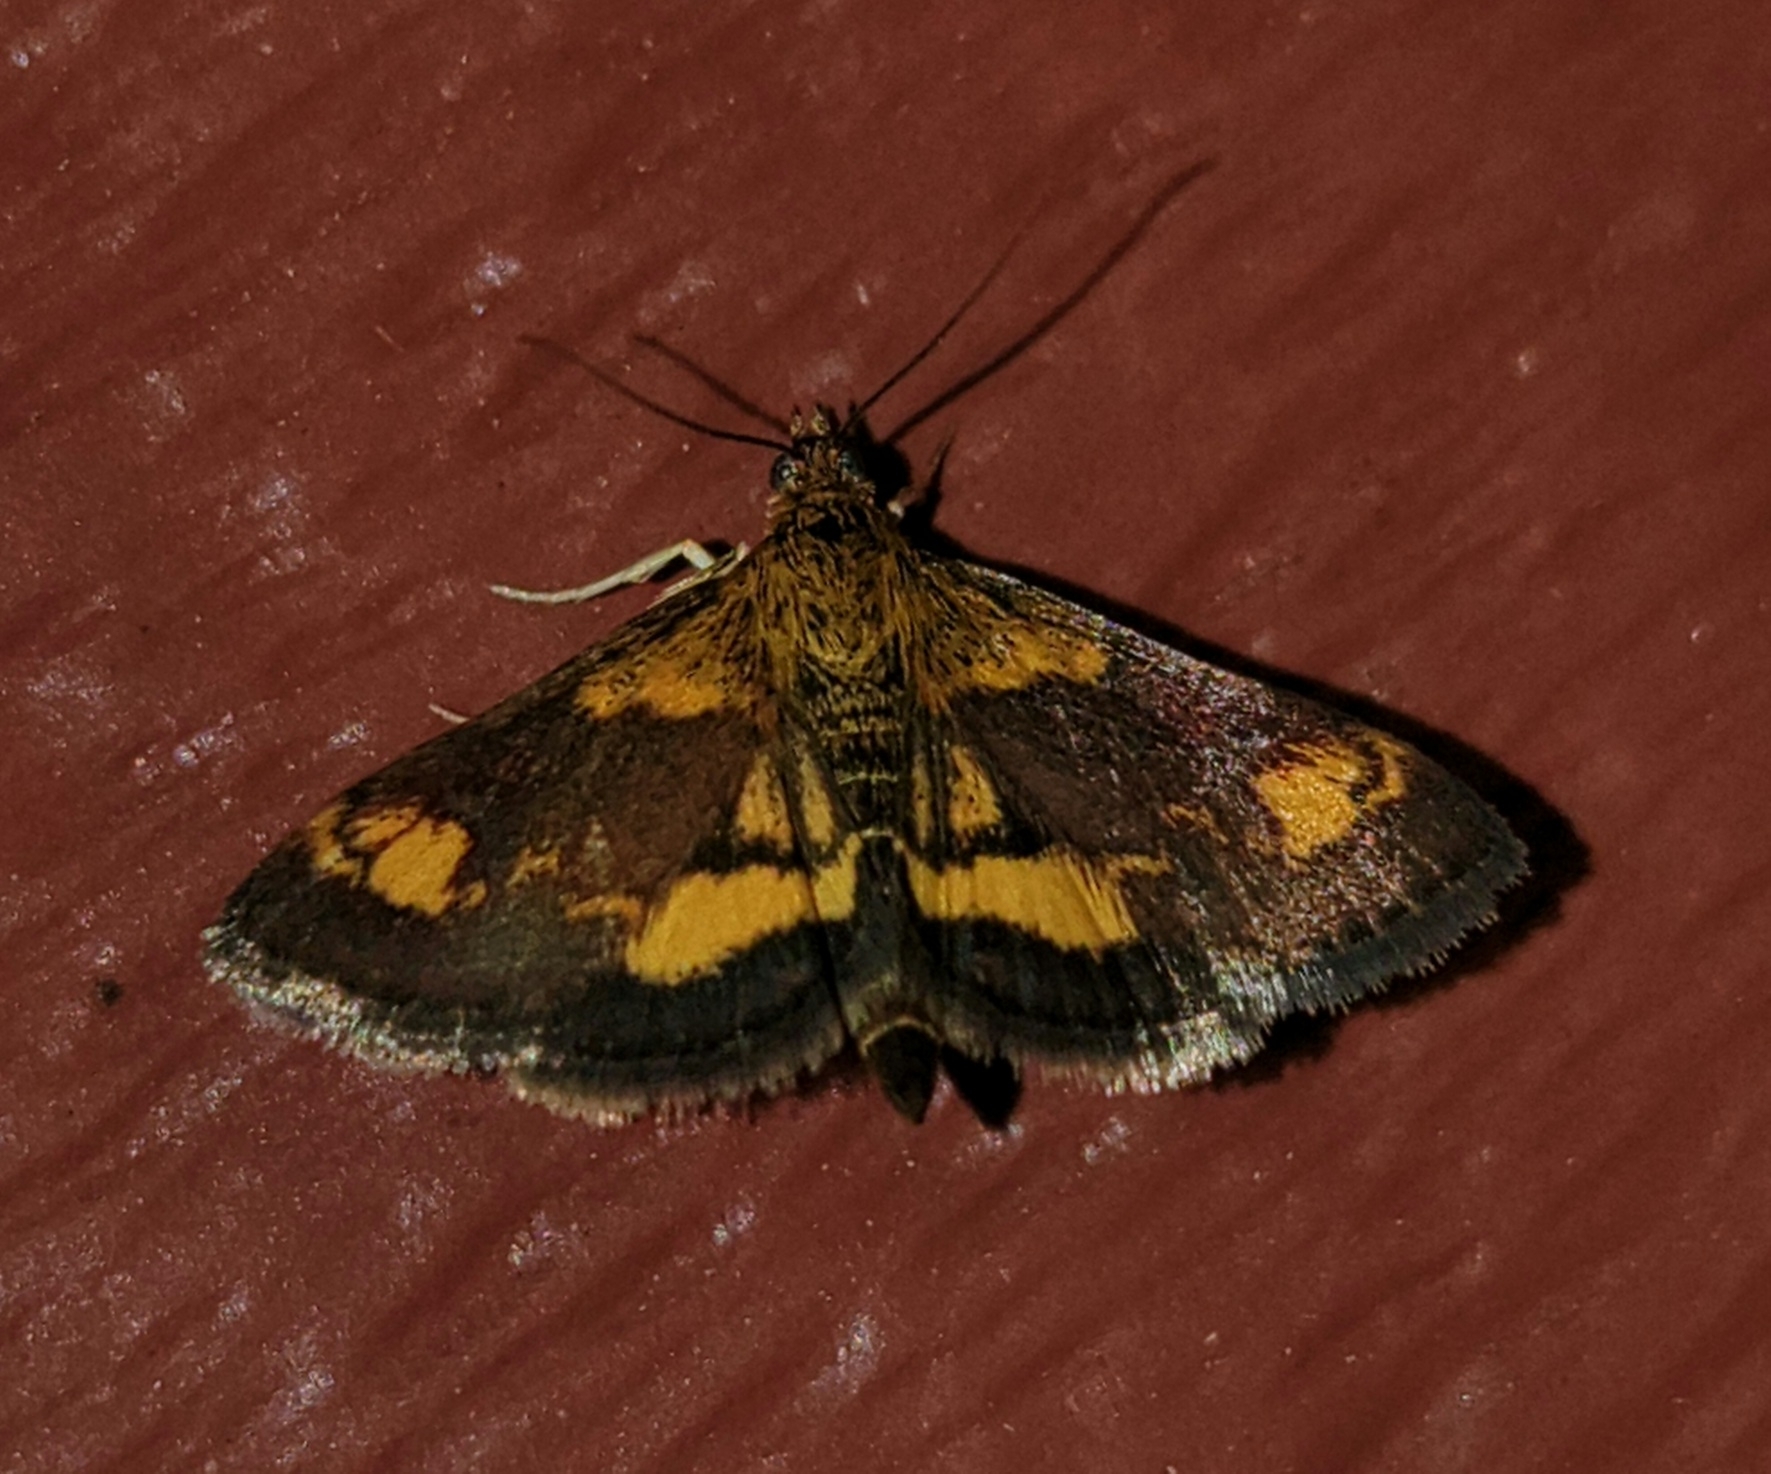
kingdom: Animalia
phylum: Arthropoda
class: Insecta
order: Lepidoptera
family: Crambidae
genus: Pyrausta
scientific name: Pyrausta orphisalis
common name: Orange mint moth
